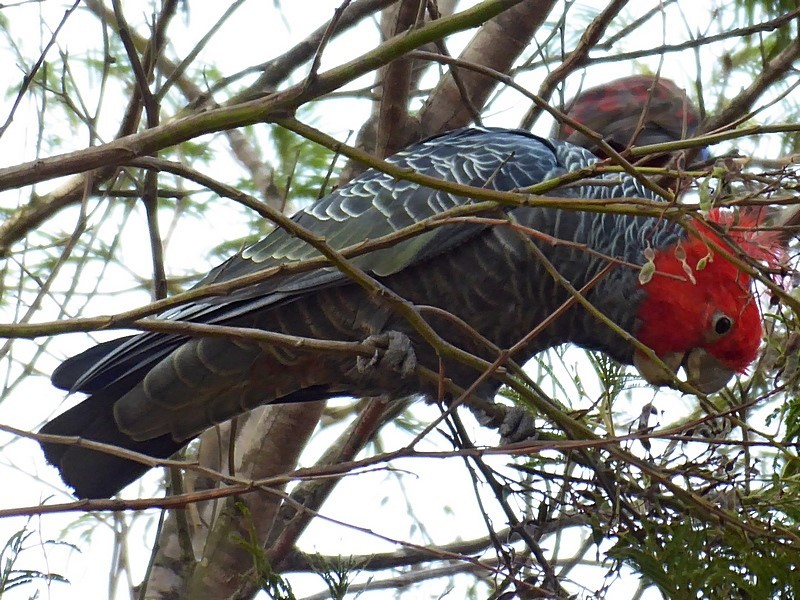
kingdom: Animalia
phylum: Chordata
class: Aves
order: Psittaciformes
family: Psittacidae
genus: Callocephalon
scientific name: Callocephalon fimbriatum
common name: Gang-gang cockatoo
